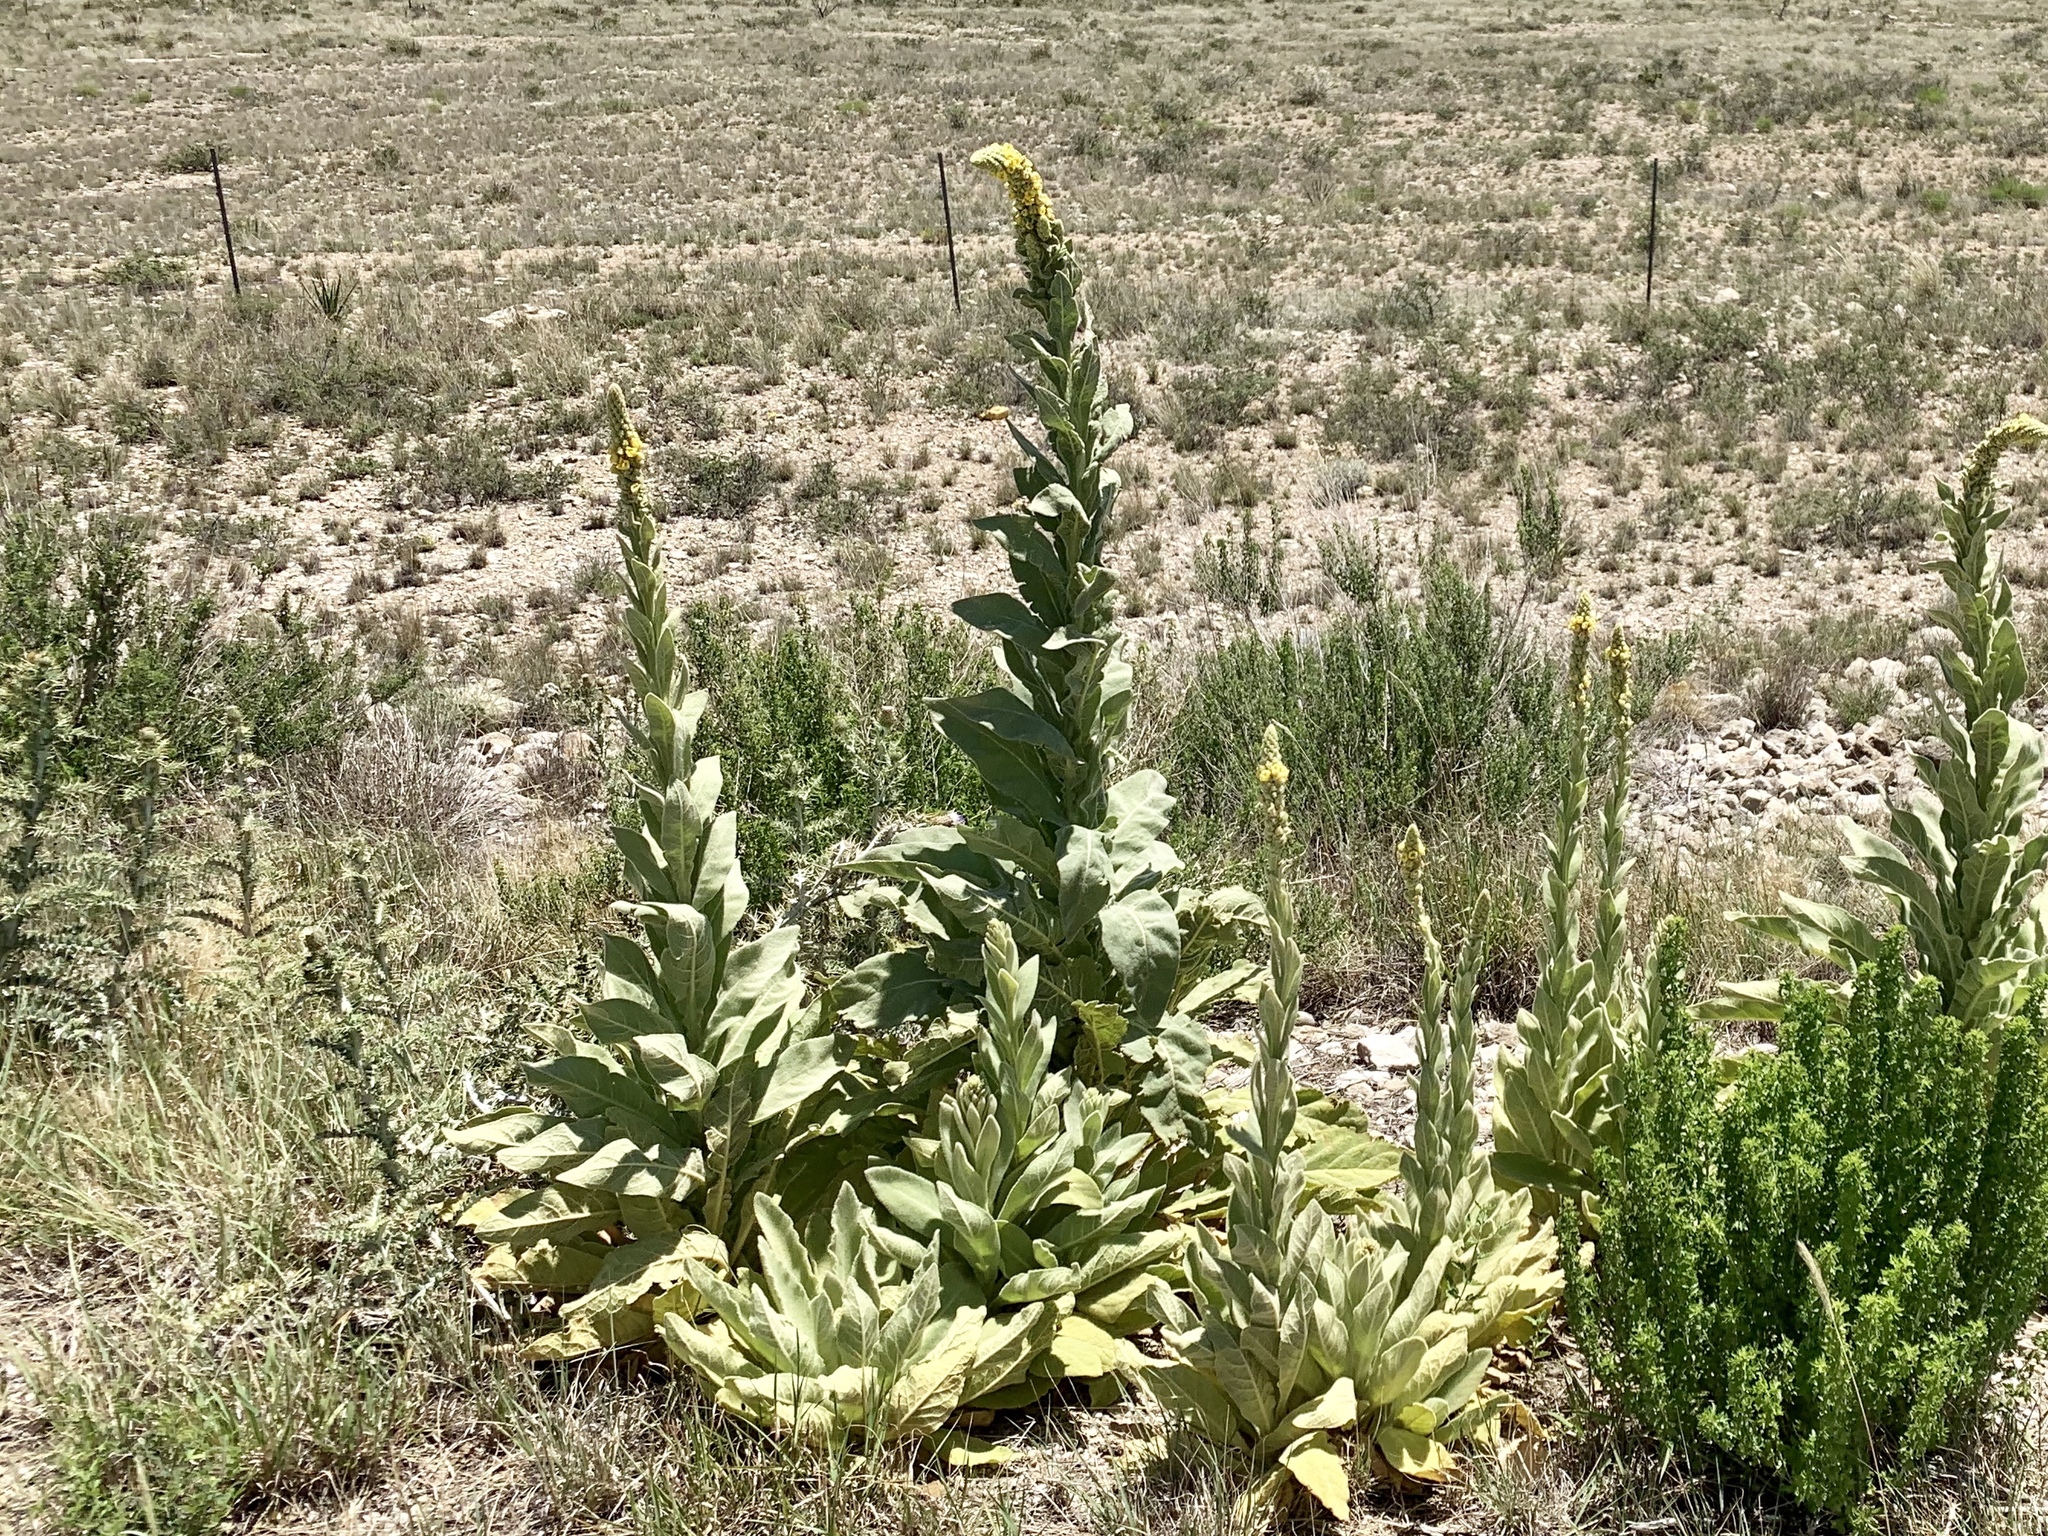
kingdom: Plantae
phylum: Tracheophyta
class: Magnoliopsida
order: Lamiales
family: Scrophulariaceae
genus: Verbascum
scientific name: Verbascum thapsus
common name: Common mullein
